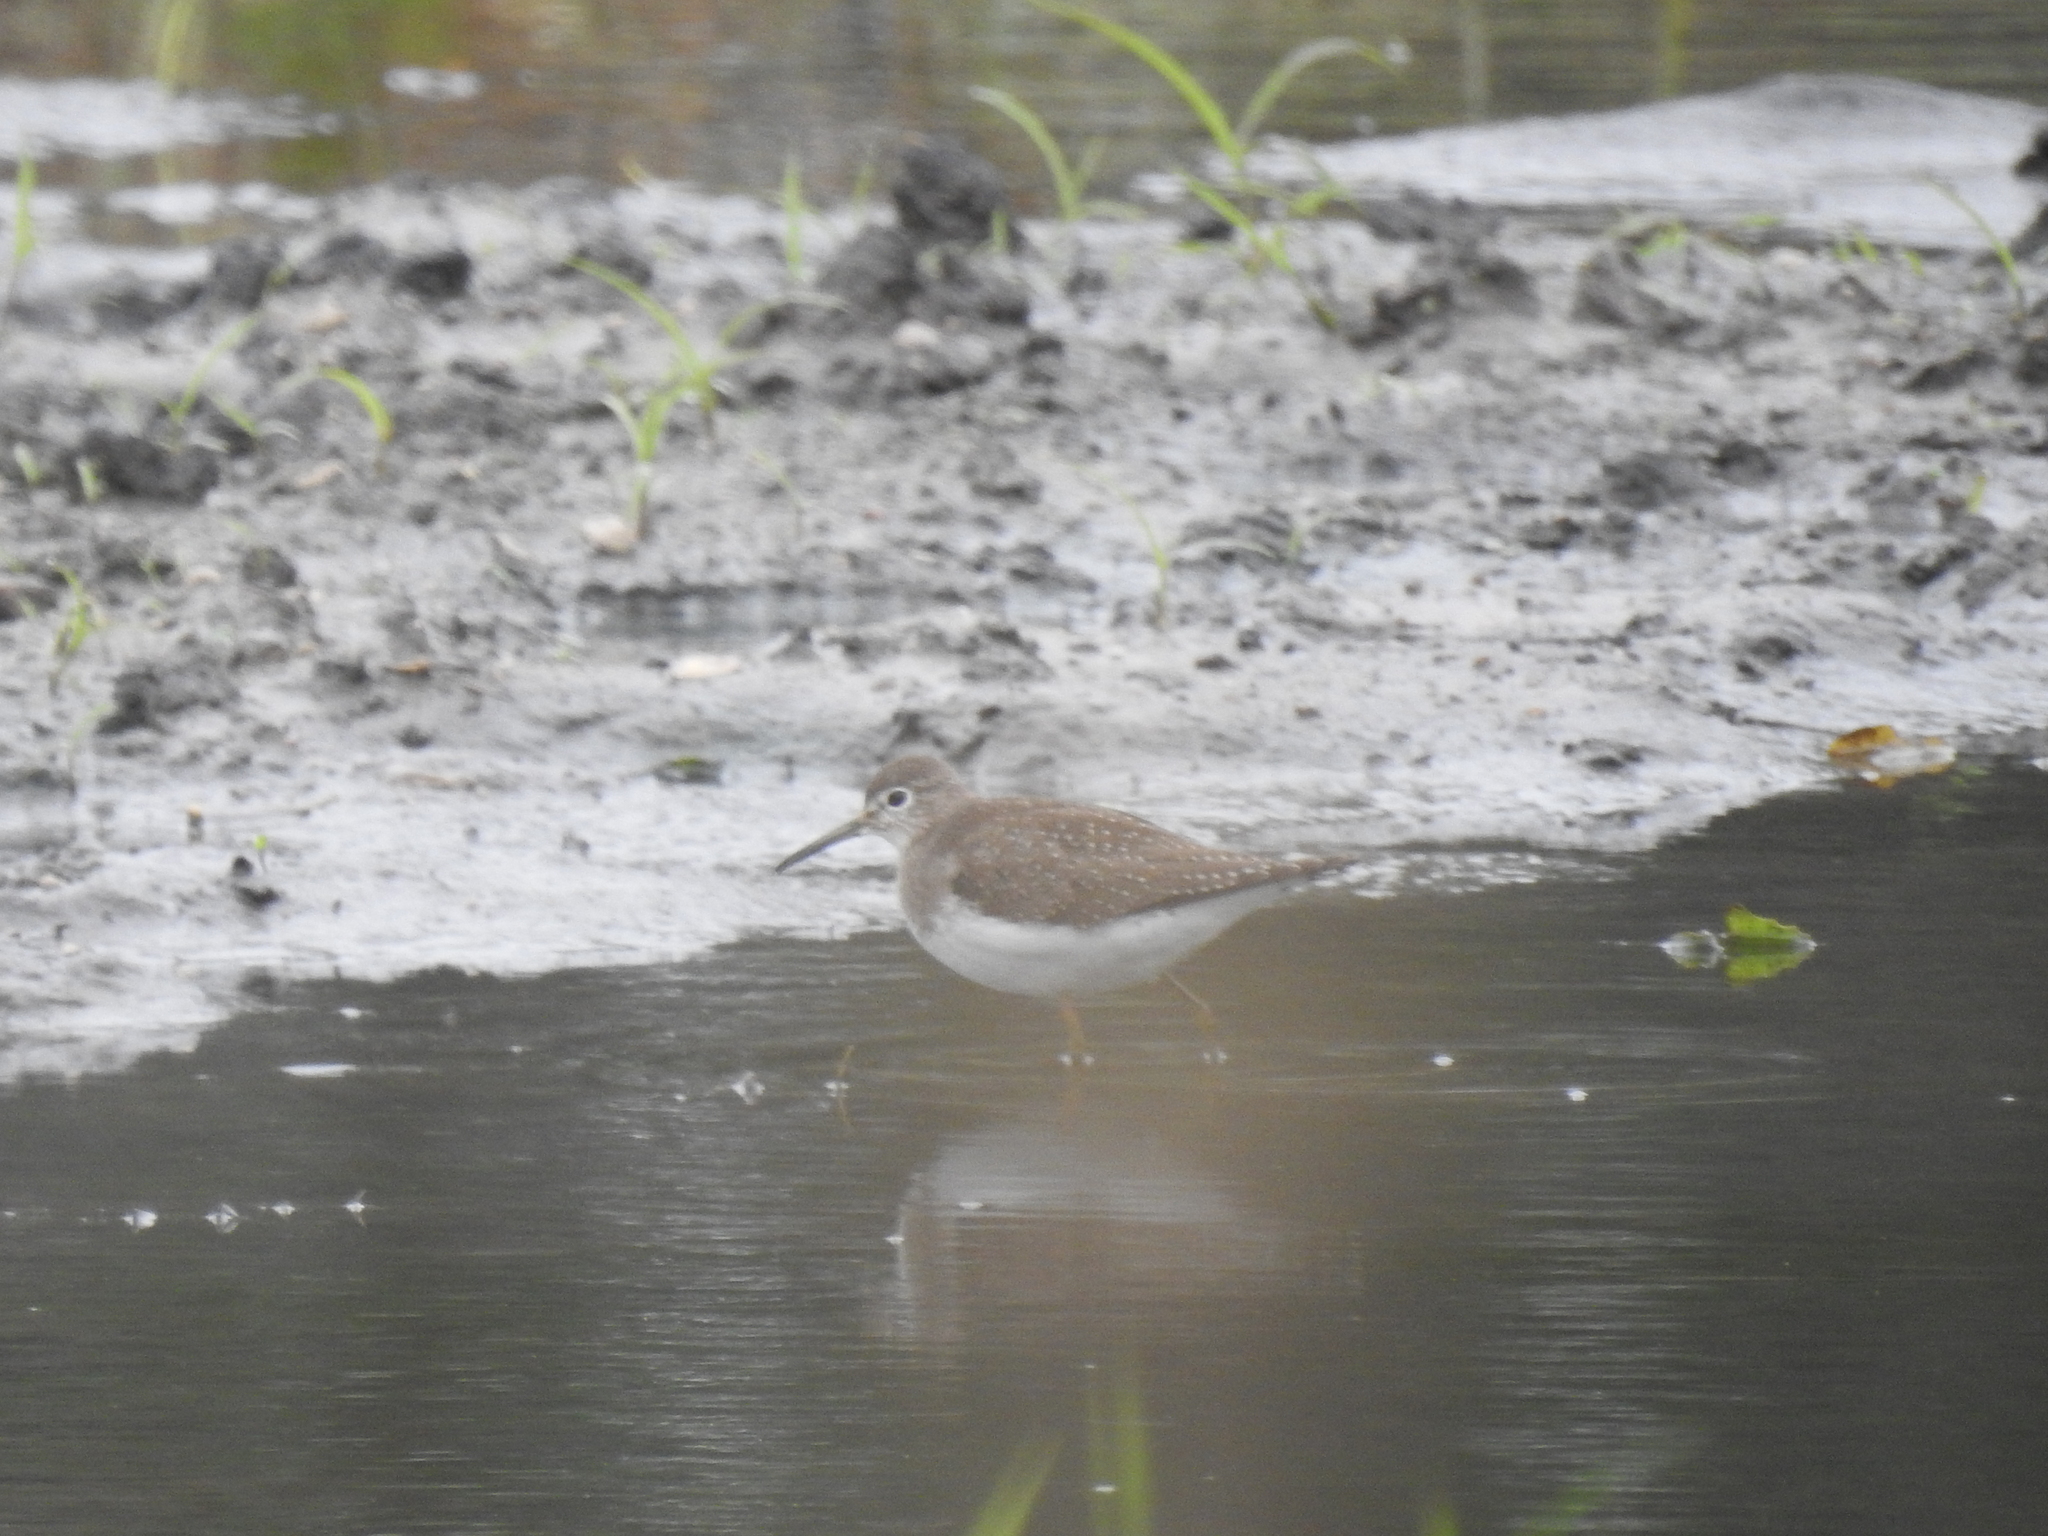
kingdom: Animalia
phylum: Chordata
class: Aves
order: Charadriiformes
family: Scolopacidae
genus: Tringa
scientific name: Tringa solitaria
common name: Solitary sandpiper
